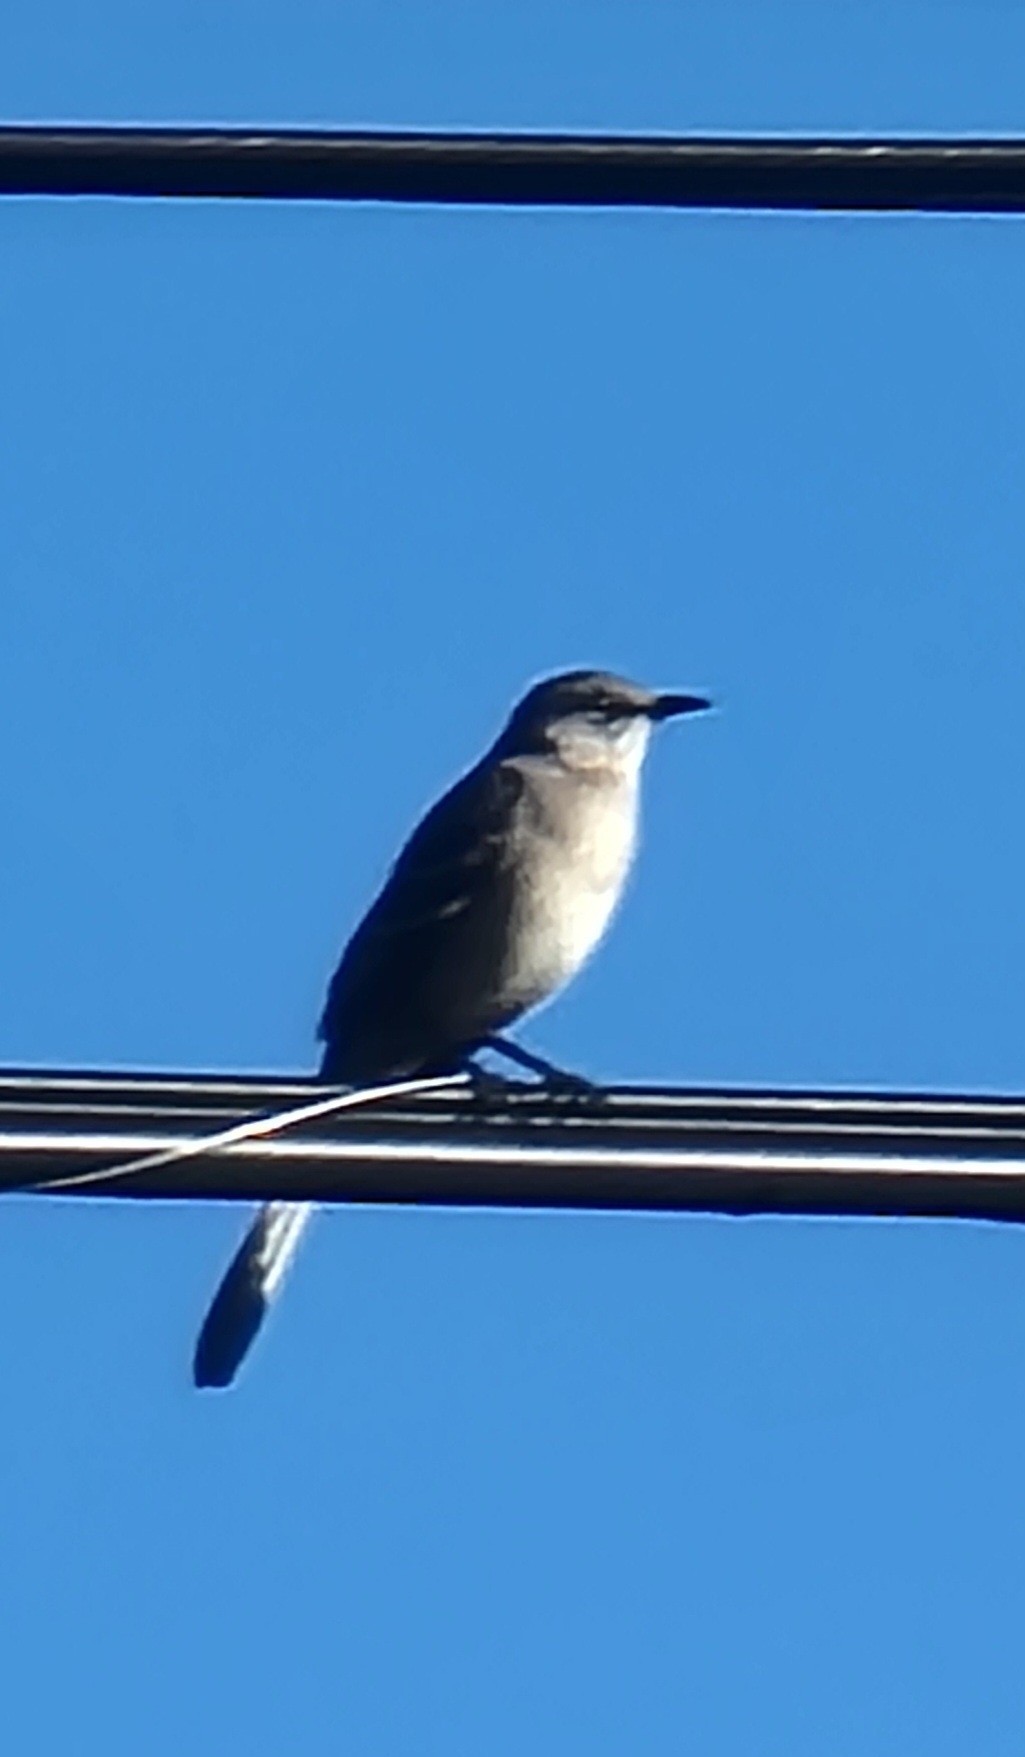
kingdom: Animalia
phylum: Chordata
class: Aves
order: Passeriformes
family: Mimidae
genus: Mimus
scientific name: Mimus polyglottos
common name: Northern mockingbird
